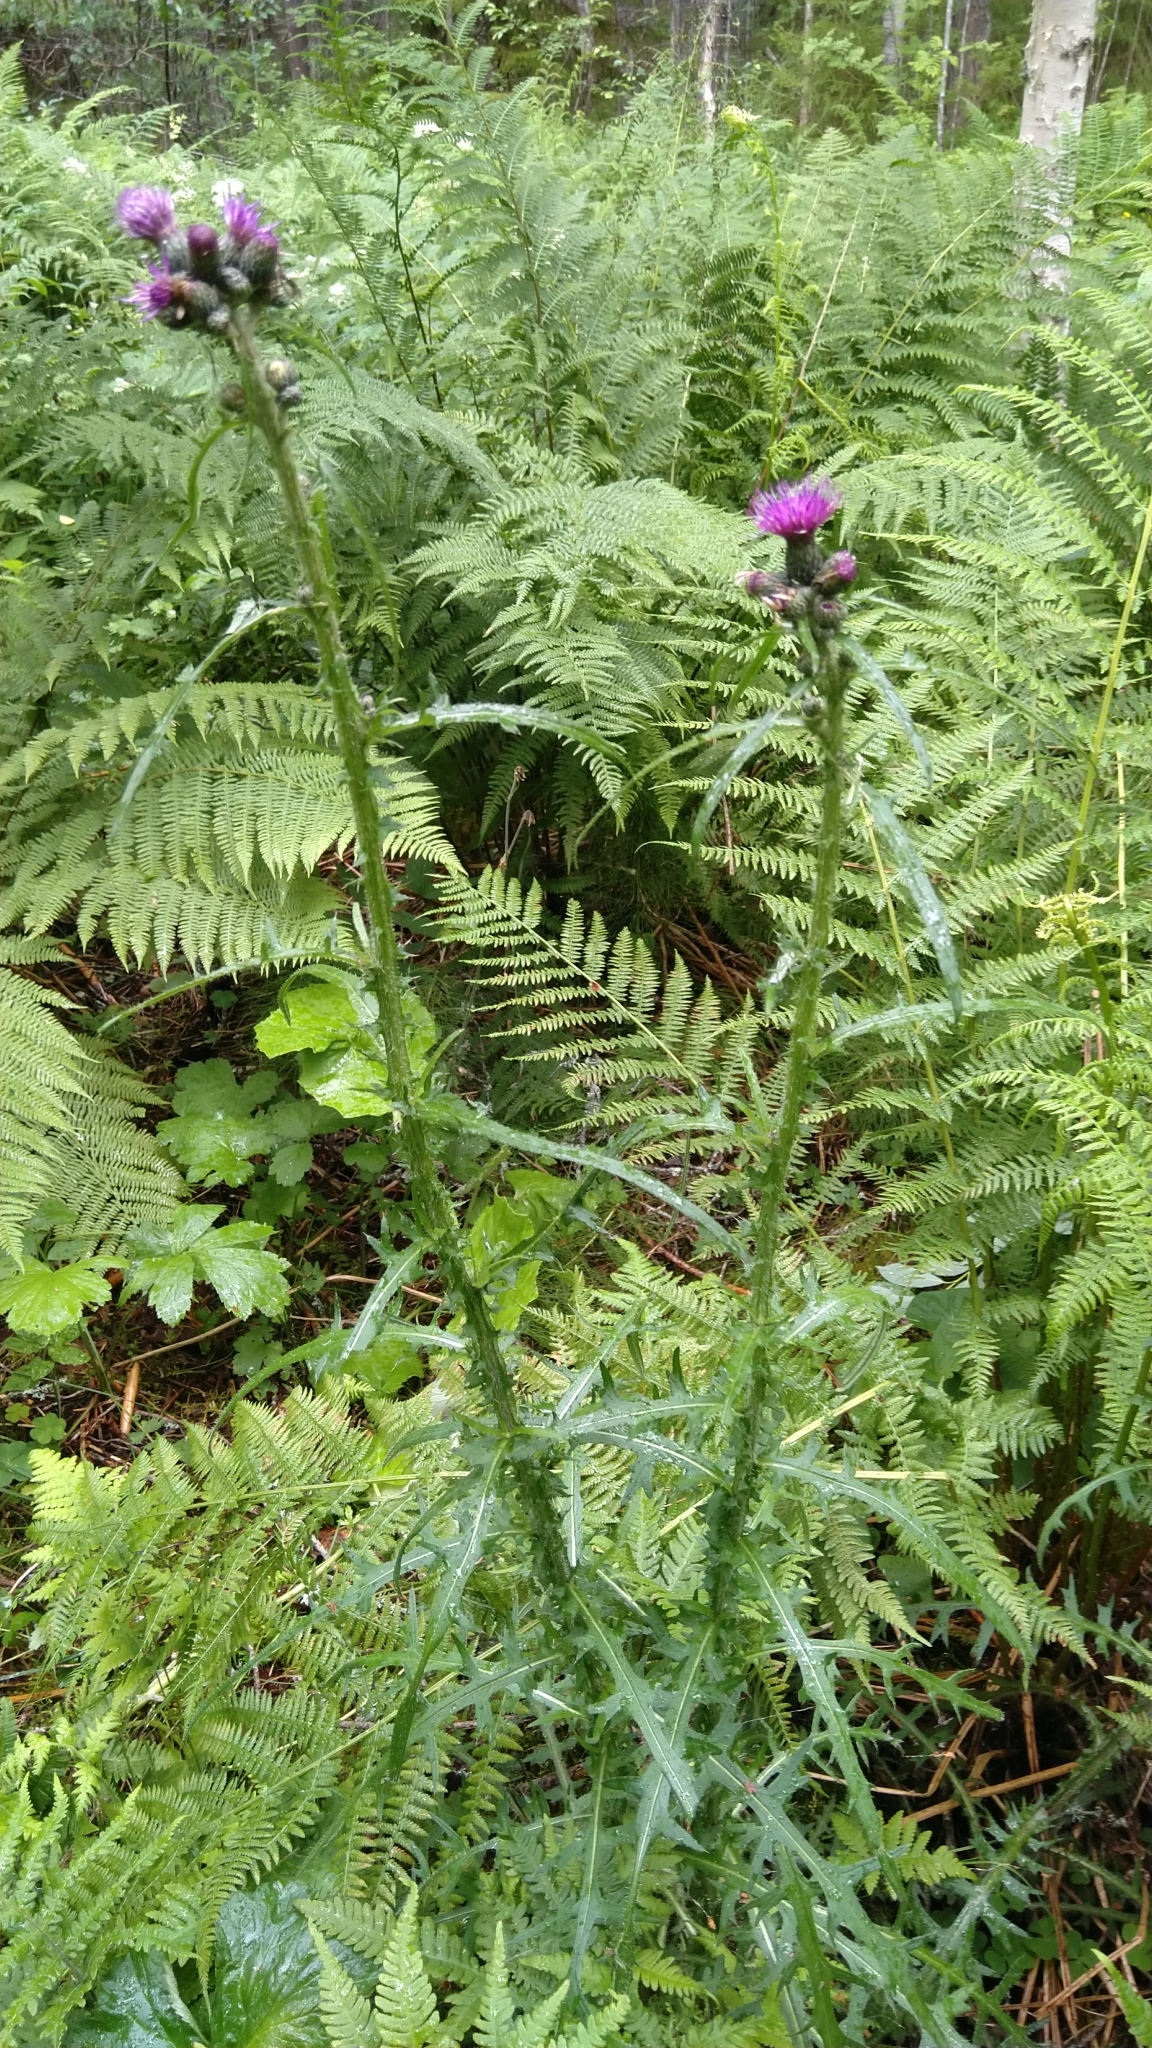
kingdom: Plantae
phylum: Tracheophyta
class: Magnoliopsida
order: Asterales
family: Asteraceae
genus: Cirsium
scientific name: Cirsium palustre
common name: Marsh thistle
